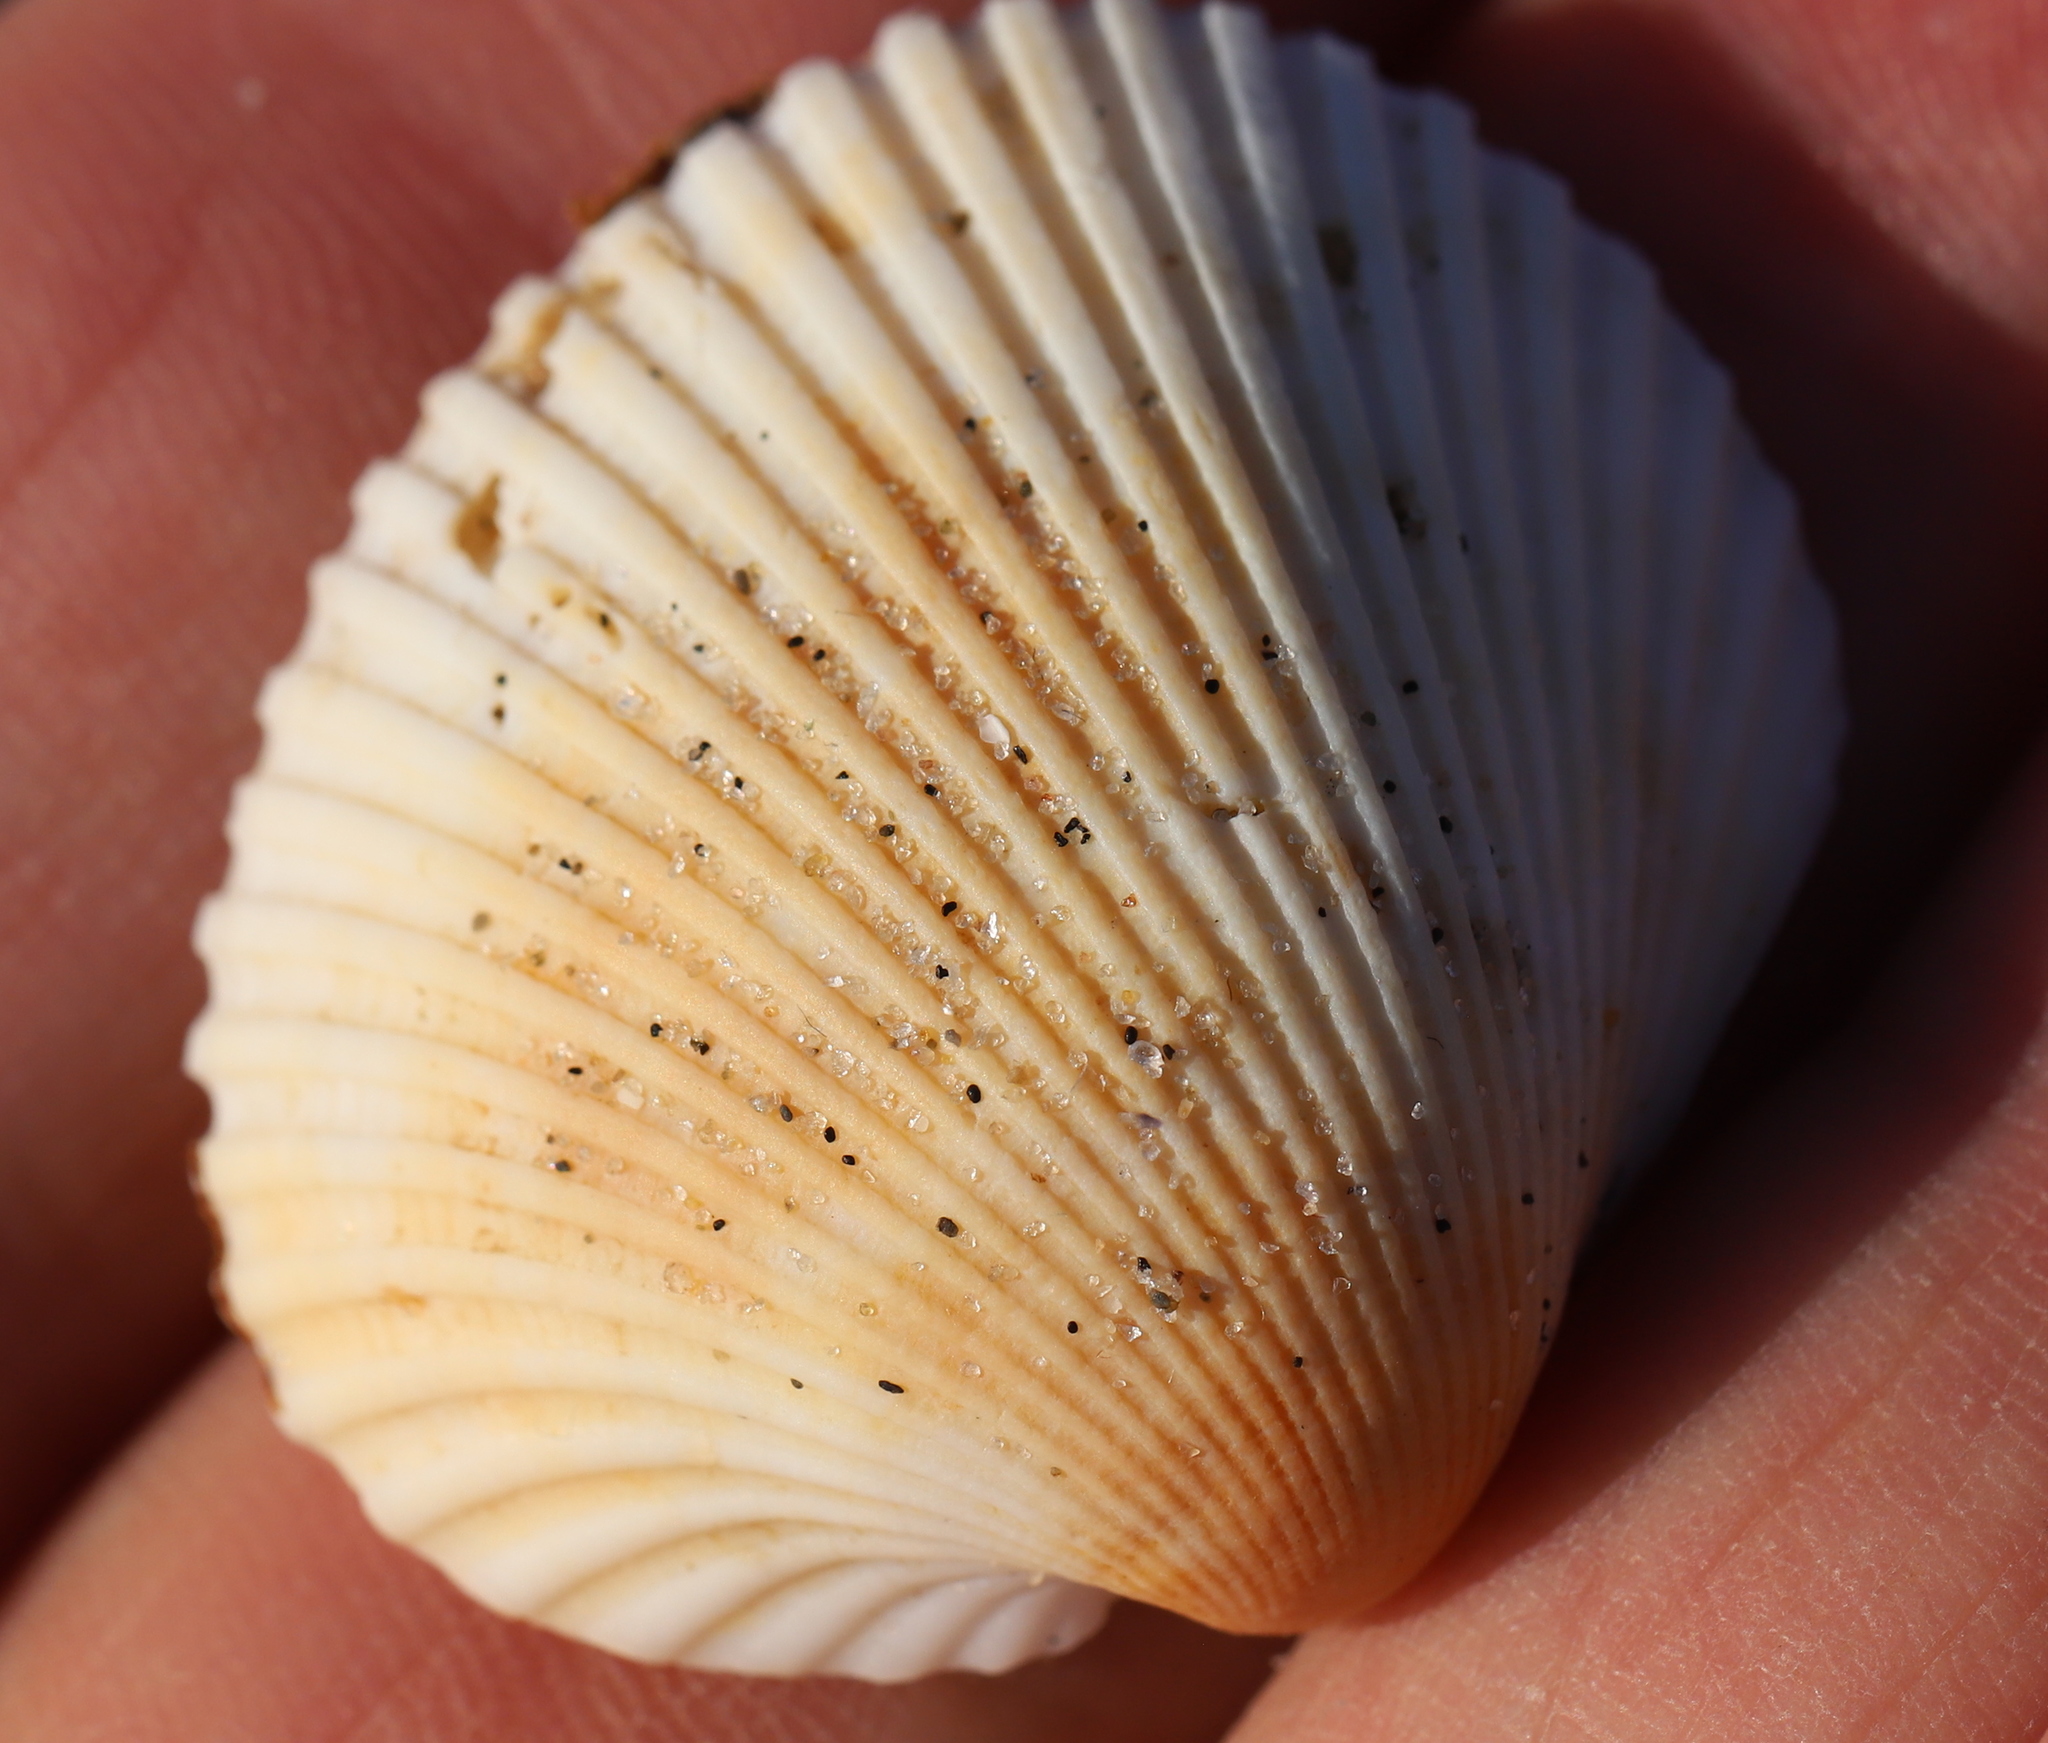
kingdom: Animalia
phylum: Mollusca
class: Bivalvia
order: Arcida
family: Arcidae
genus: Lunarca
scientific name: Lunarca ovalis
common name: Blood ark
